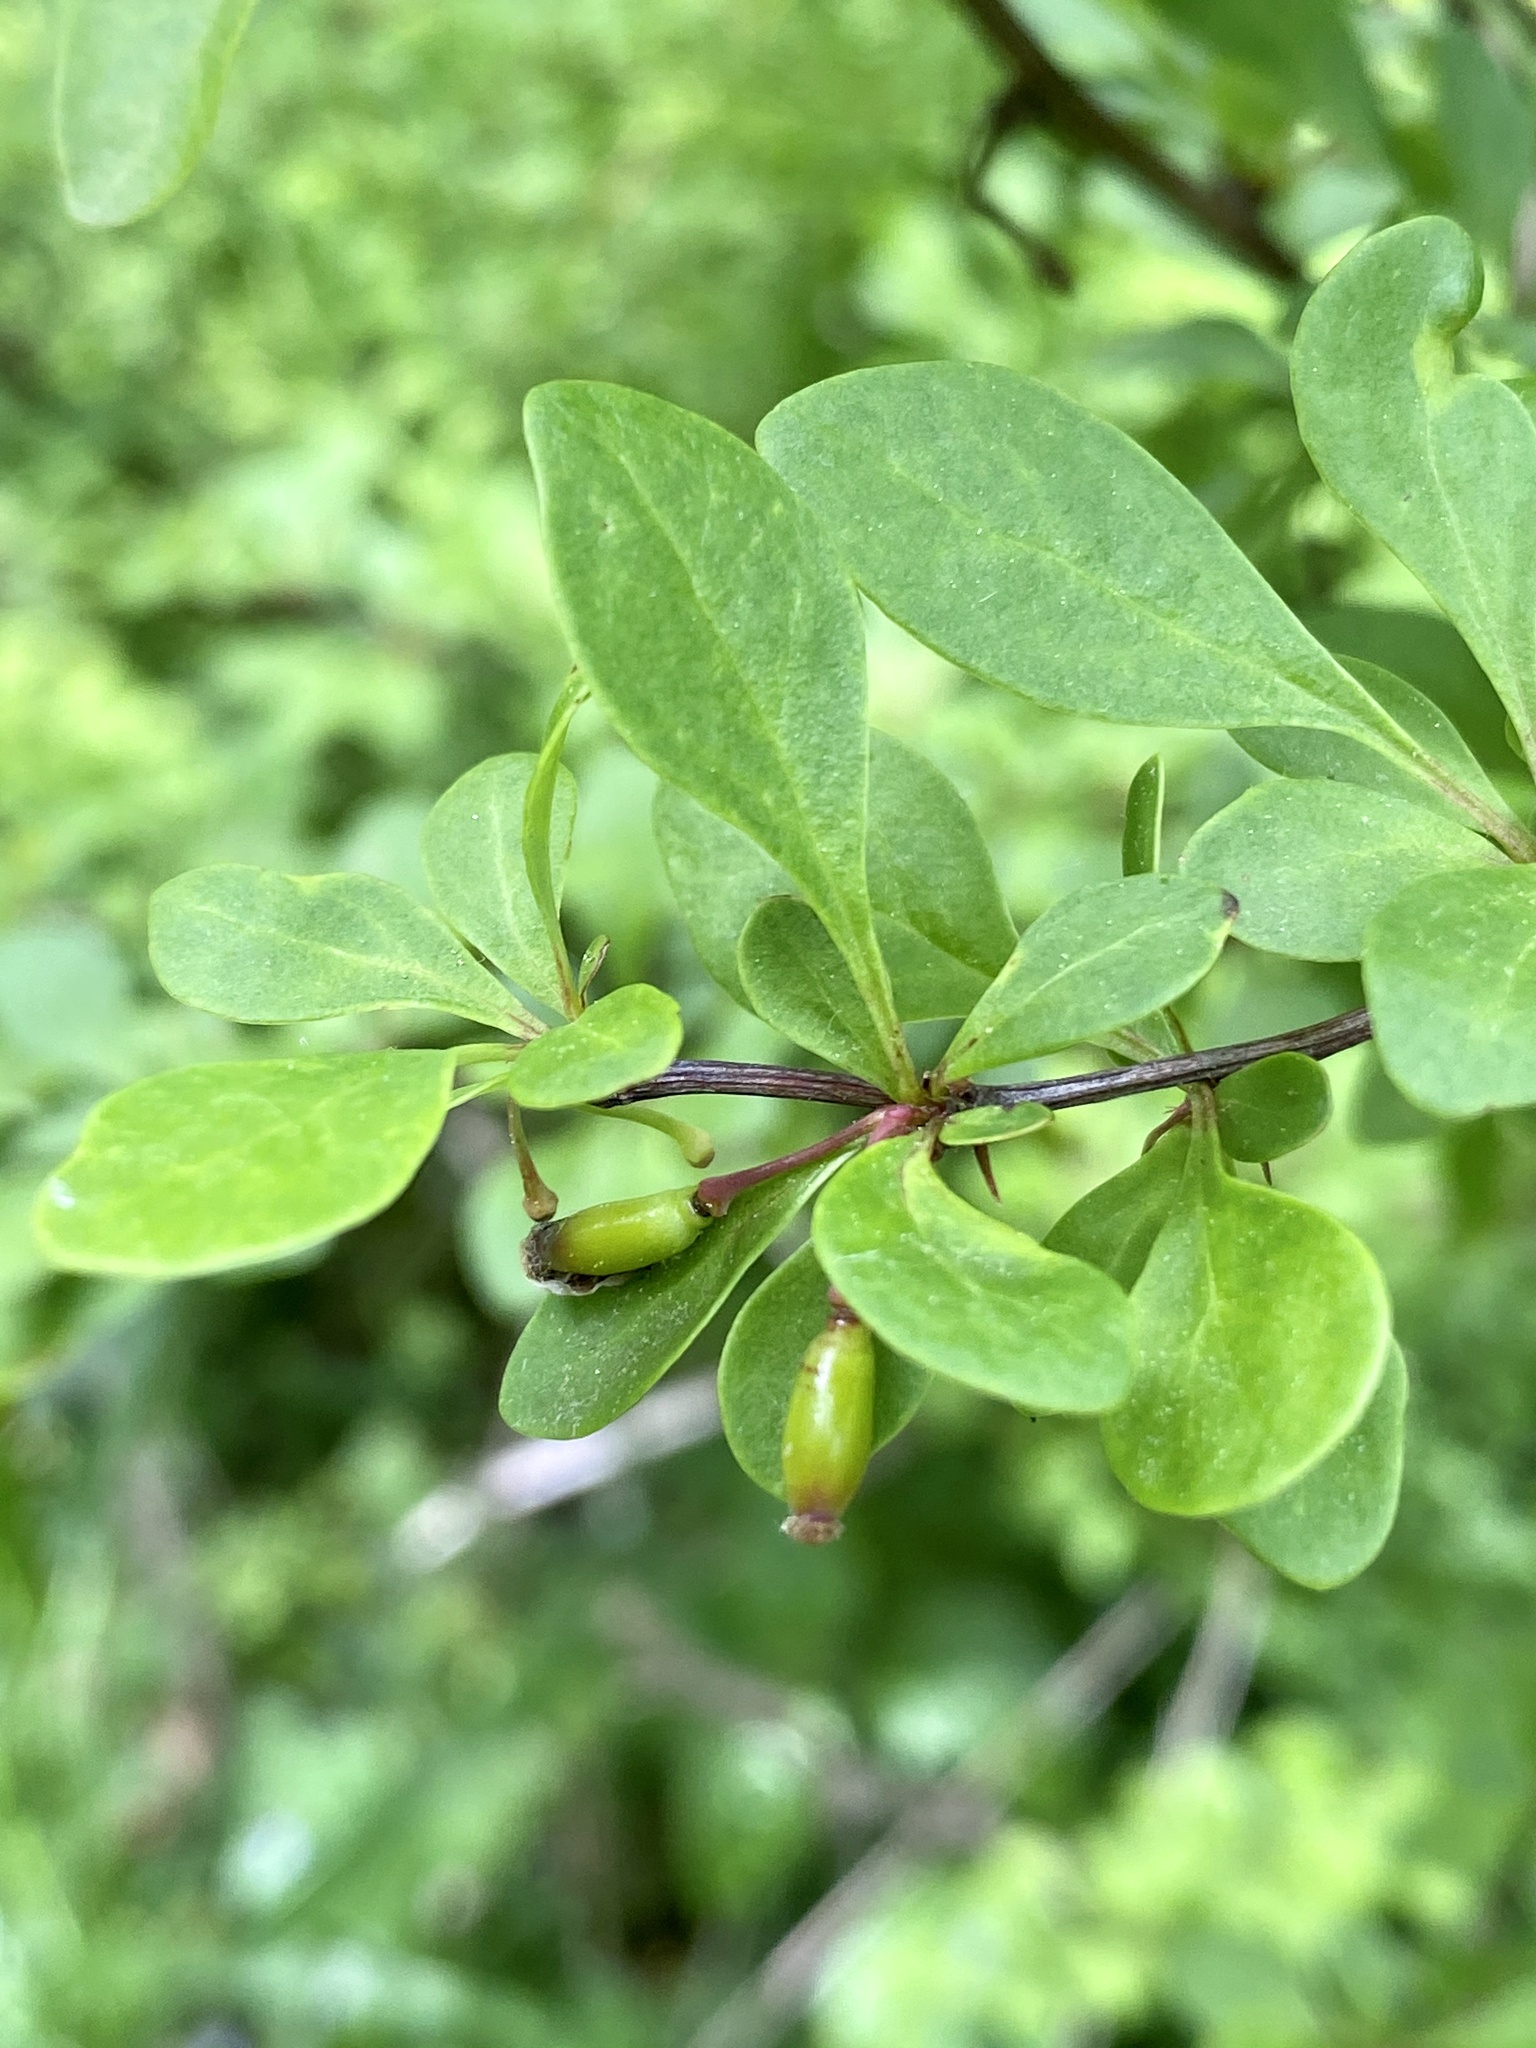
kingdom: Plantae
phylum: Tracheophyta
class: Magnoliopsida
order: Ranunculales
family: Berberidaceae
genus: Berberis
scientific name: Berberis thunbergii
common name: Japanese barberry
